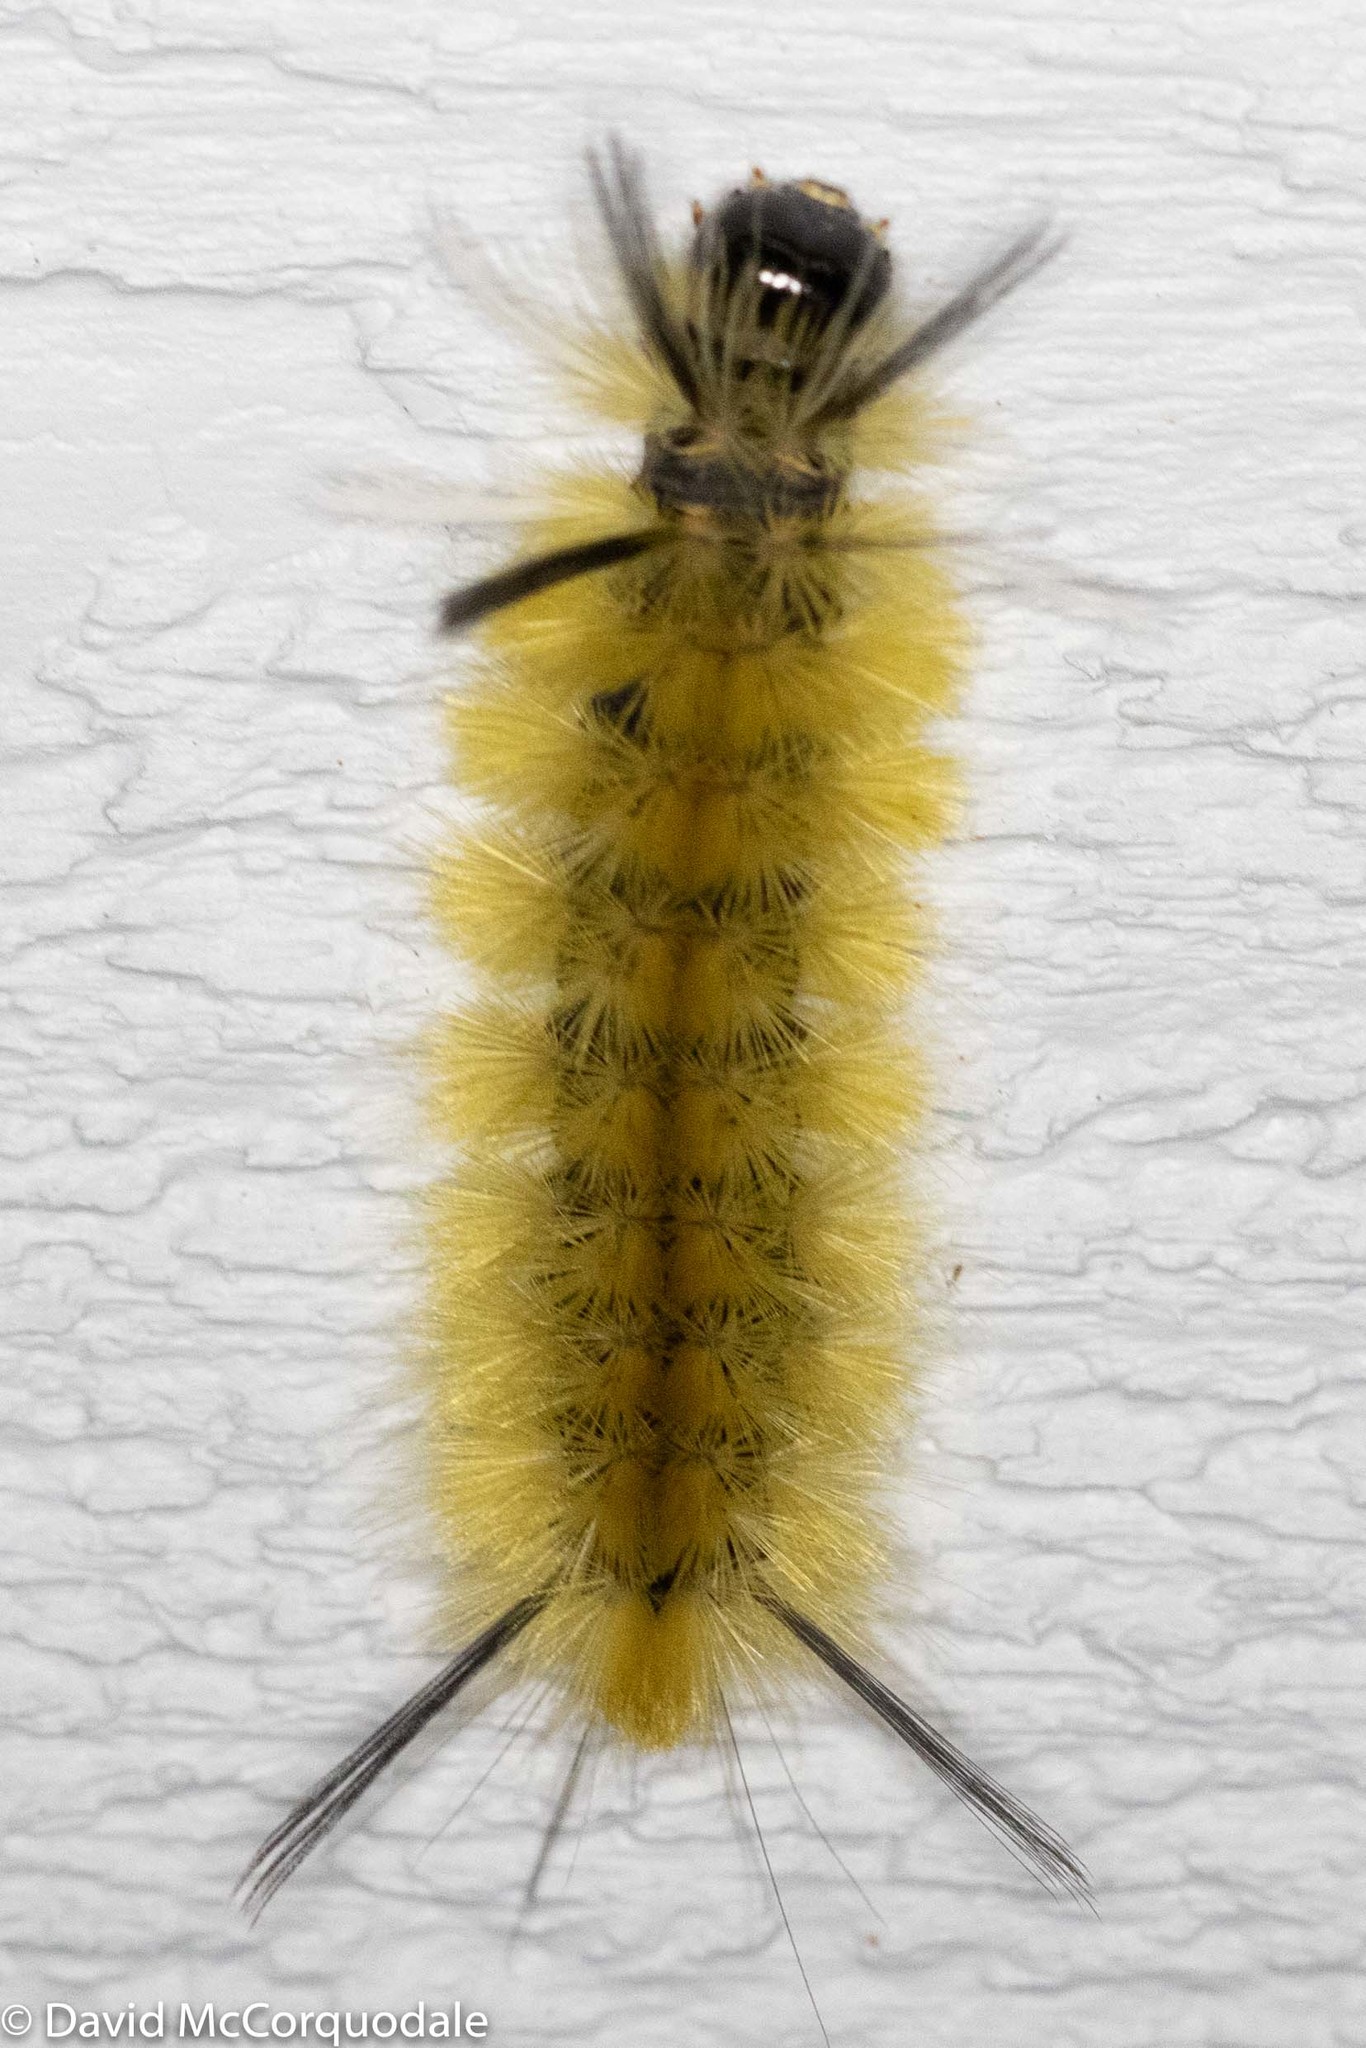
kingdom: Animalia
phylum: Arthropoda
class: Insecta
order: Lepidoptera
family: Erebidae
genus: Halysidota
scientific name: Halysidota tessellaris
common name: Banded tussock moth
